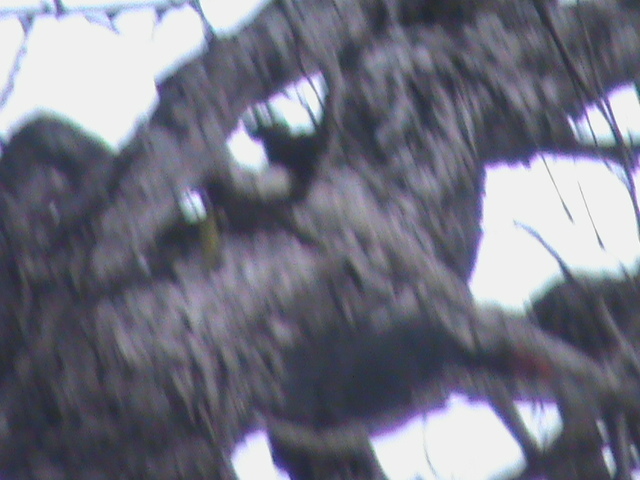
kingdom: Animalia
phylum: Chordata
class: Aves
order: Piciformes
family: Picidae
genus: Dryocopus
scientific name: Dryocopus javensis
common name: White-bellied woodpecker
